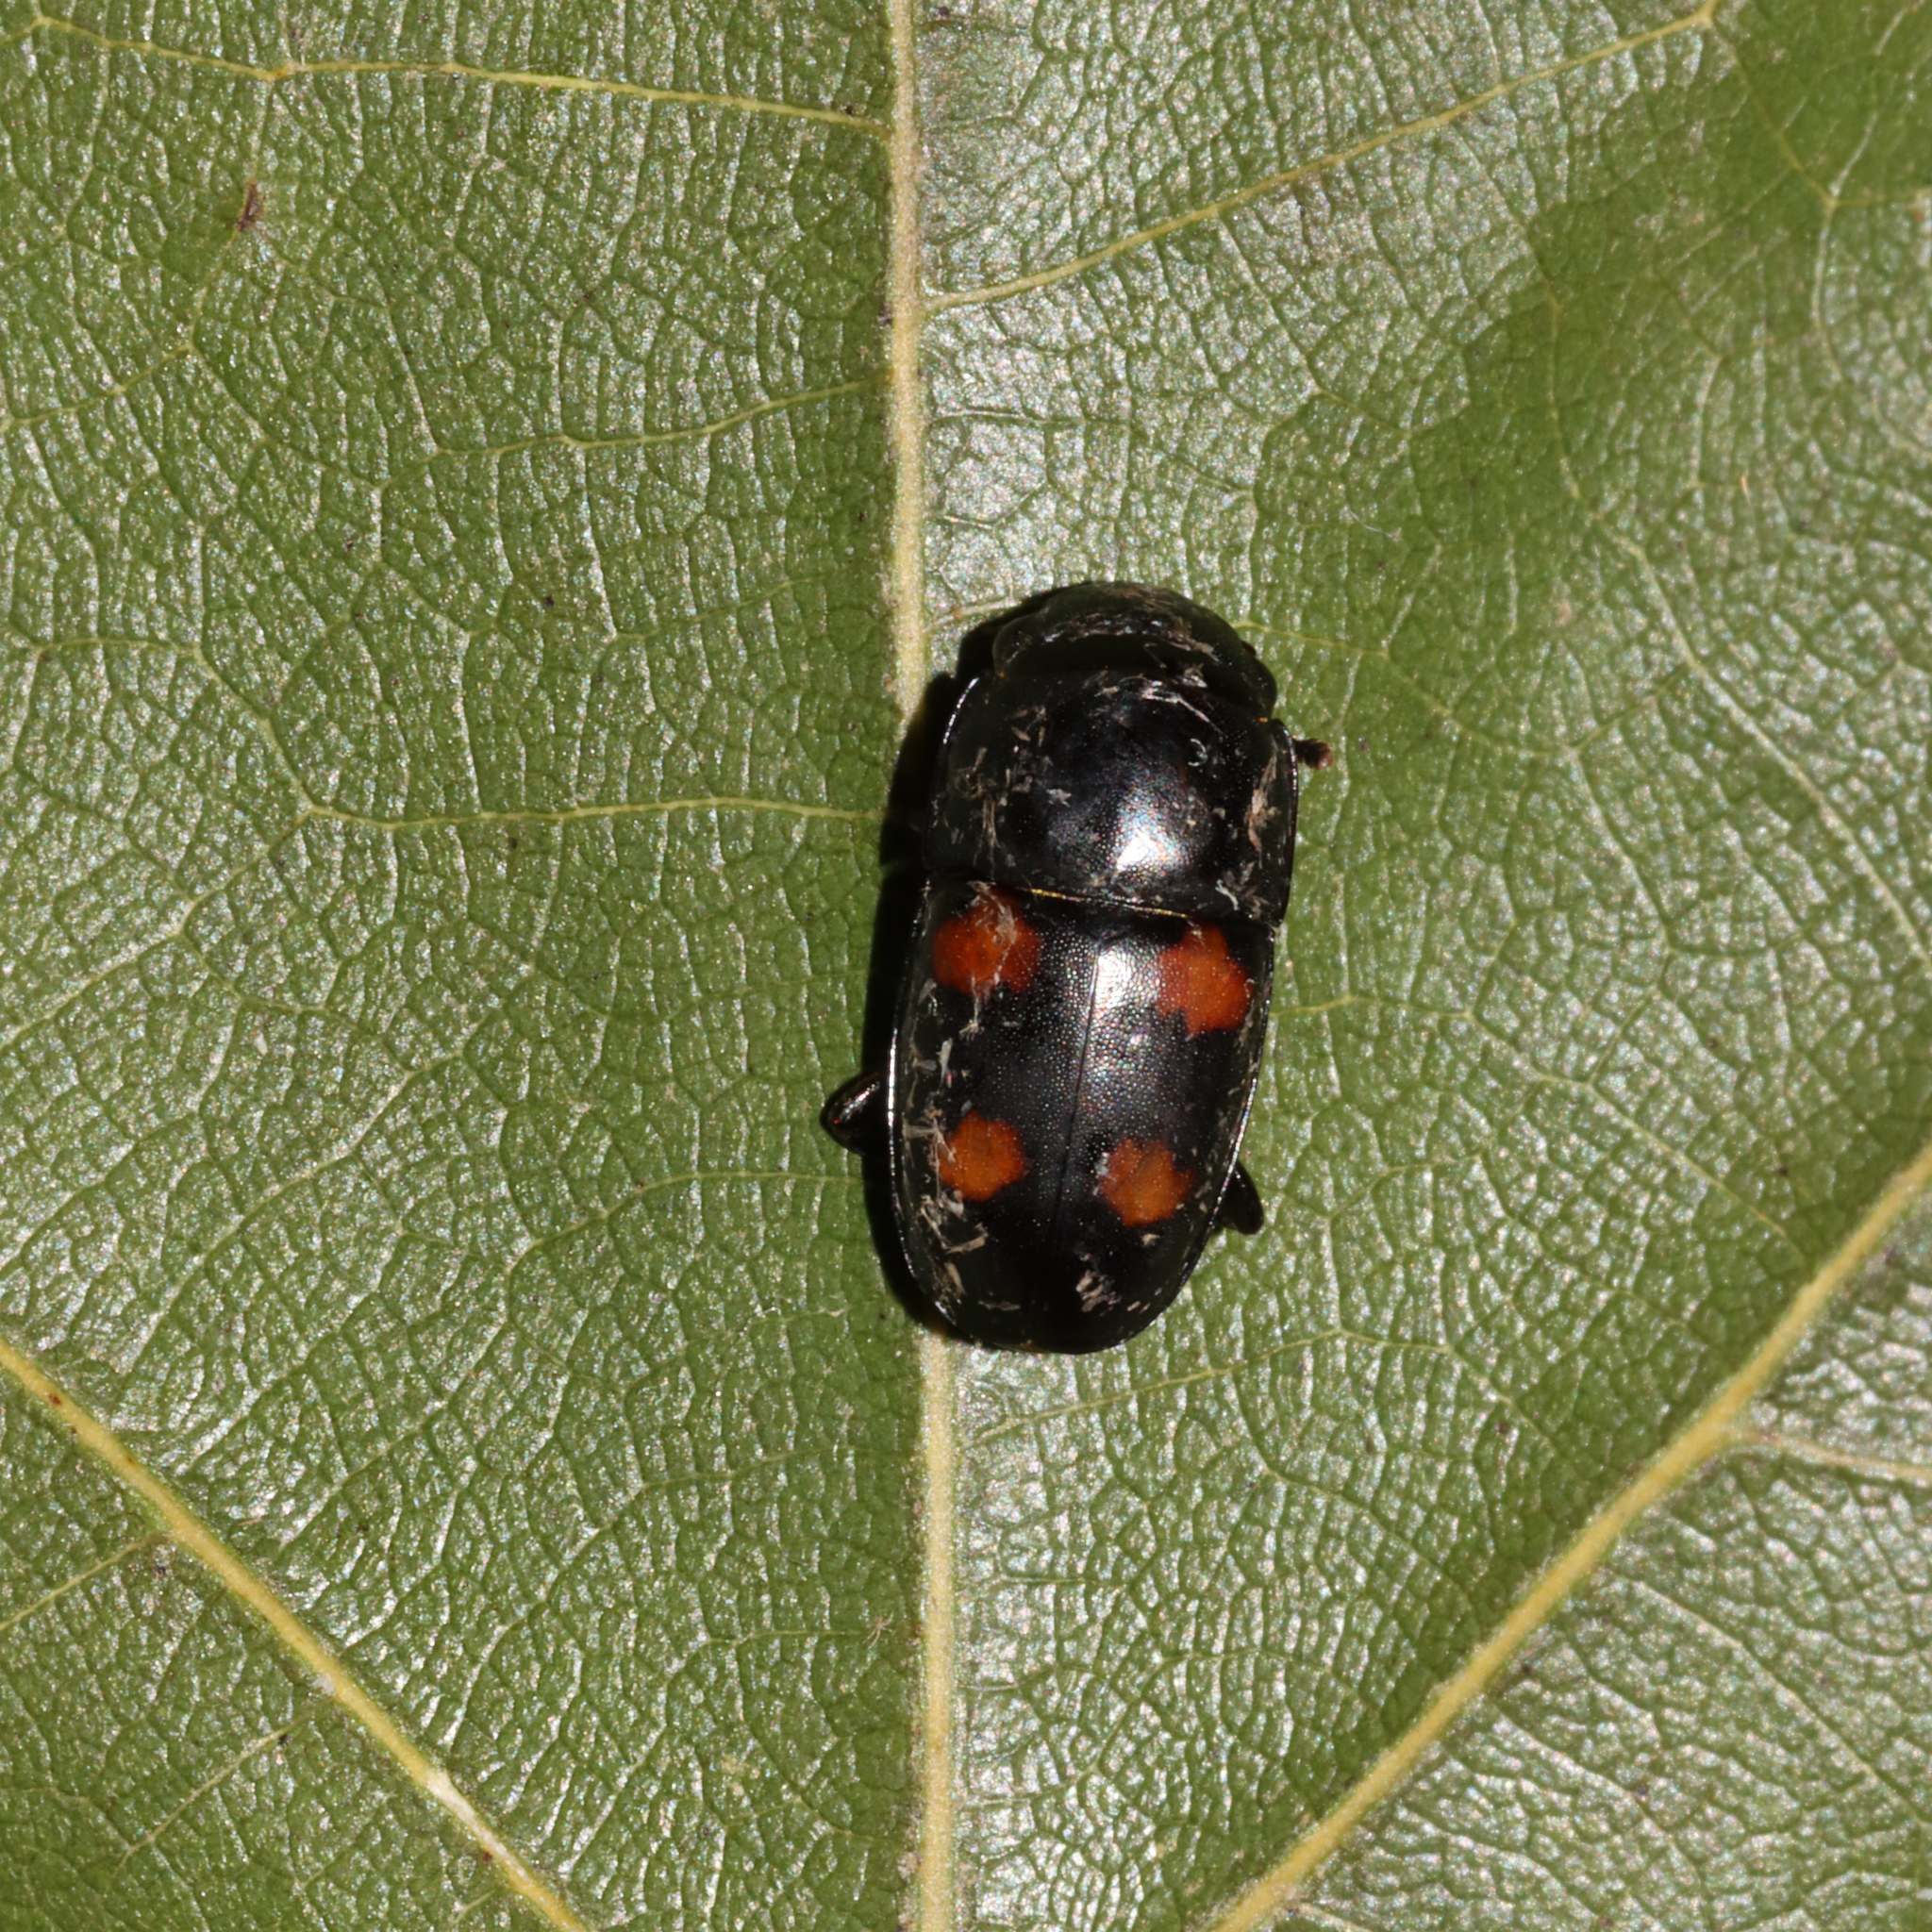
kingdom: Animalia
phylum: Arthropoda
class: Insecta
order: Coleoptera
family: Nitidulidae
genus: Glischrochilus
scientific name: Glischrochilus obtusus
